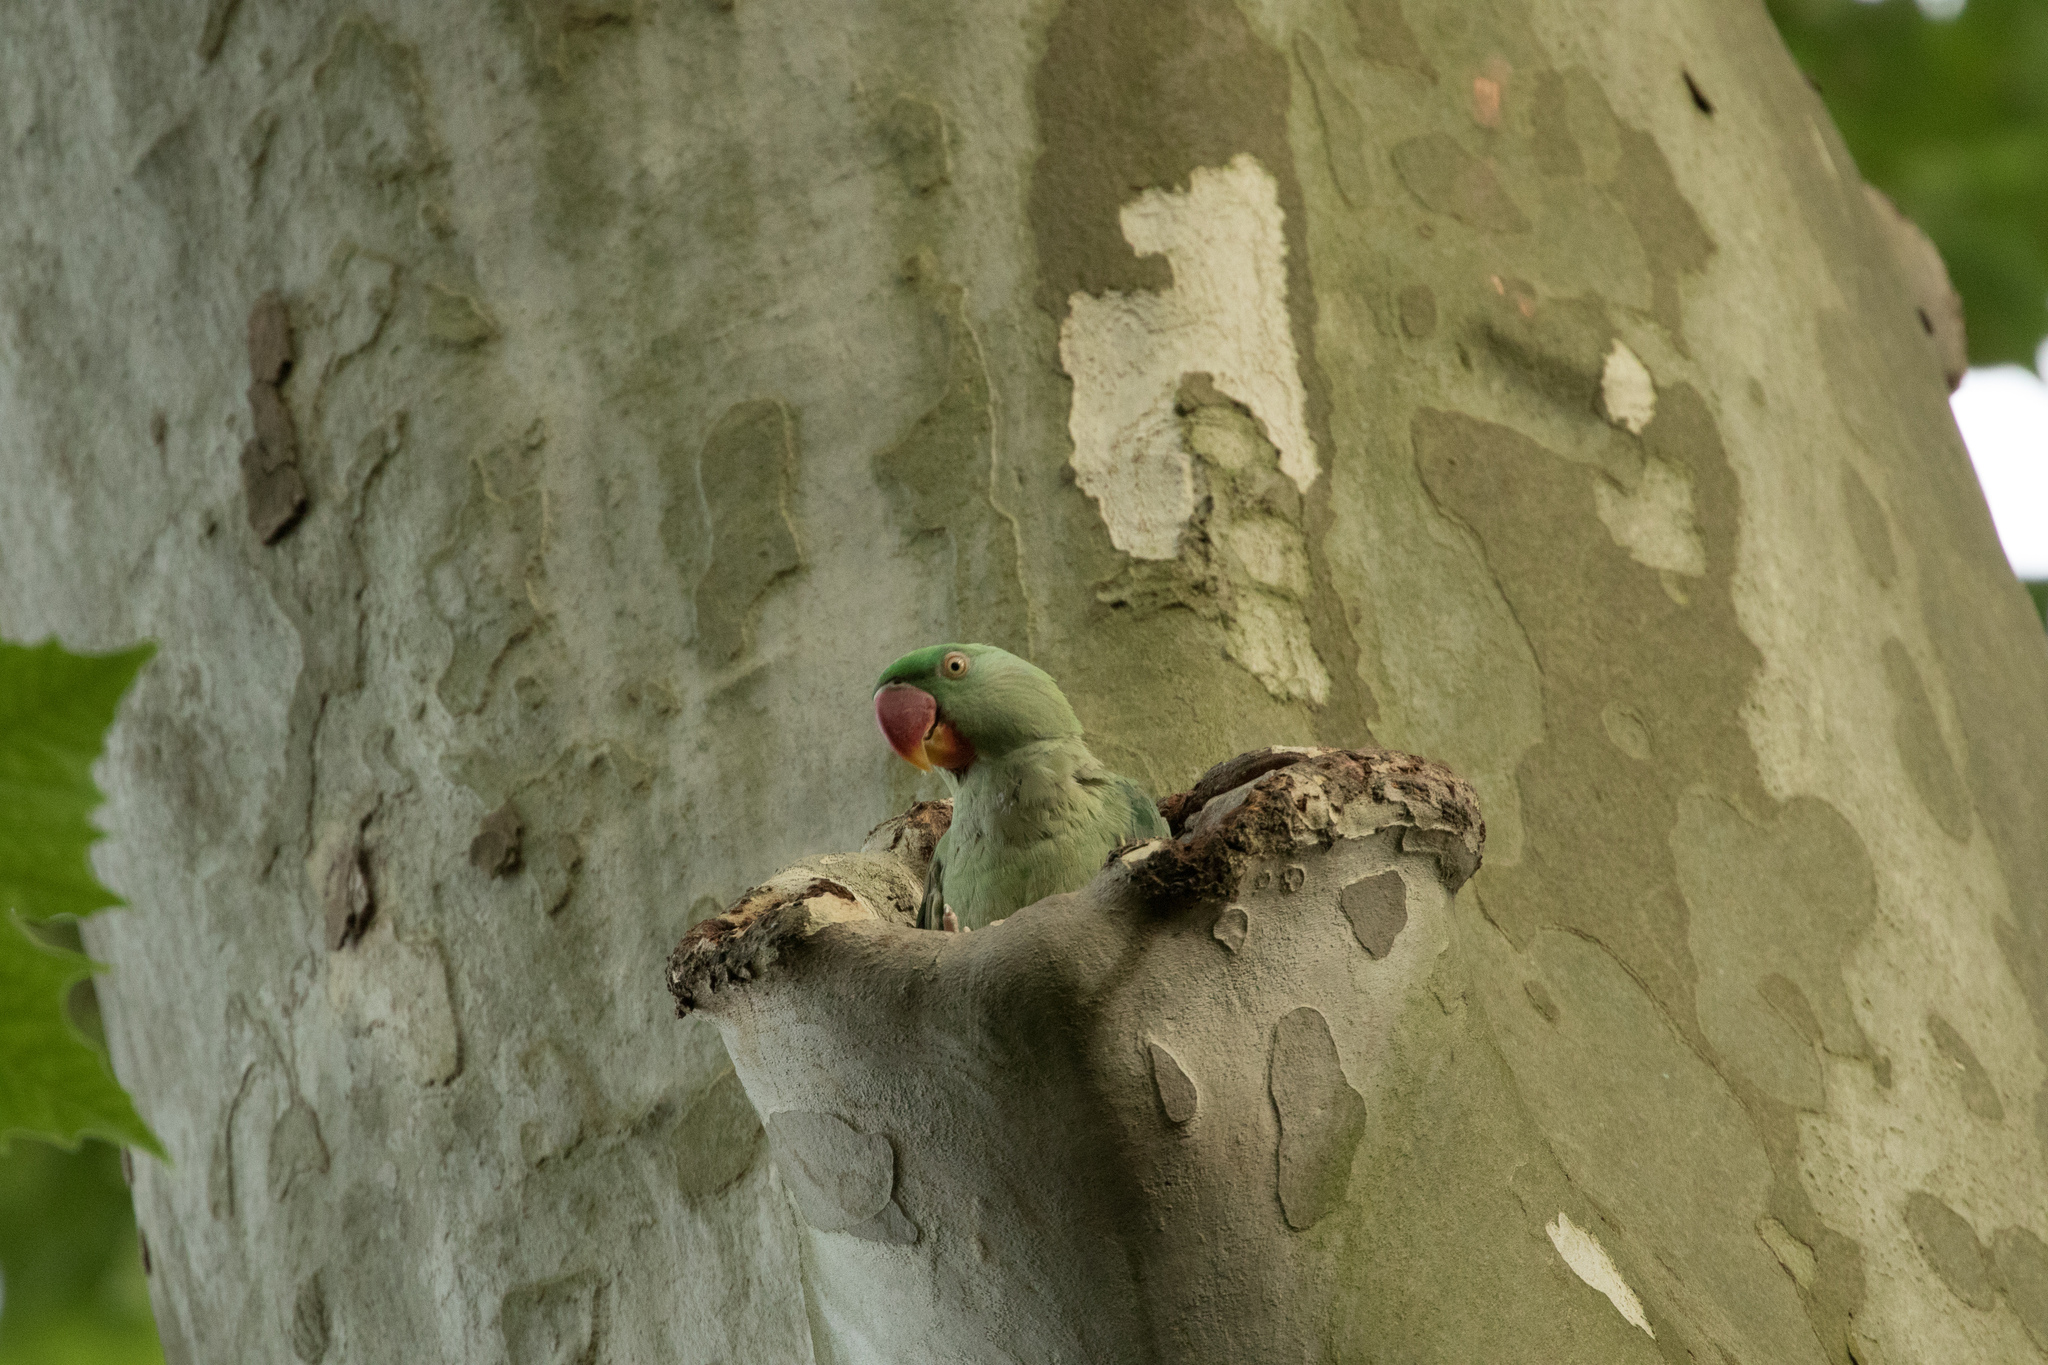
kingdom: Animalia
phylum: Chordata
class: Aves
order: Psittaciformes
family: Psittacidae
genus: Psittacula
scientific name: Psittacula eupatria
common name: Alexandrine parakeet
